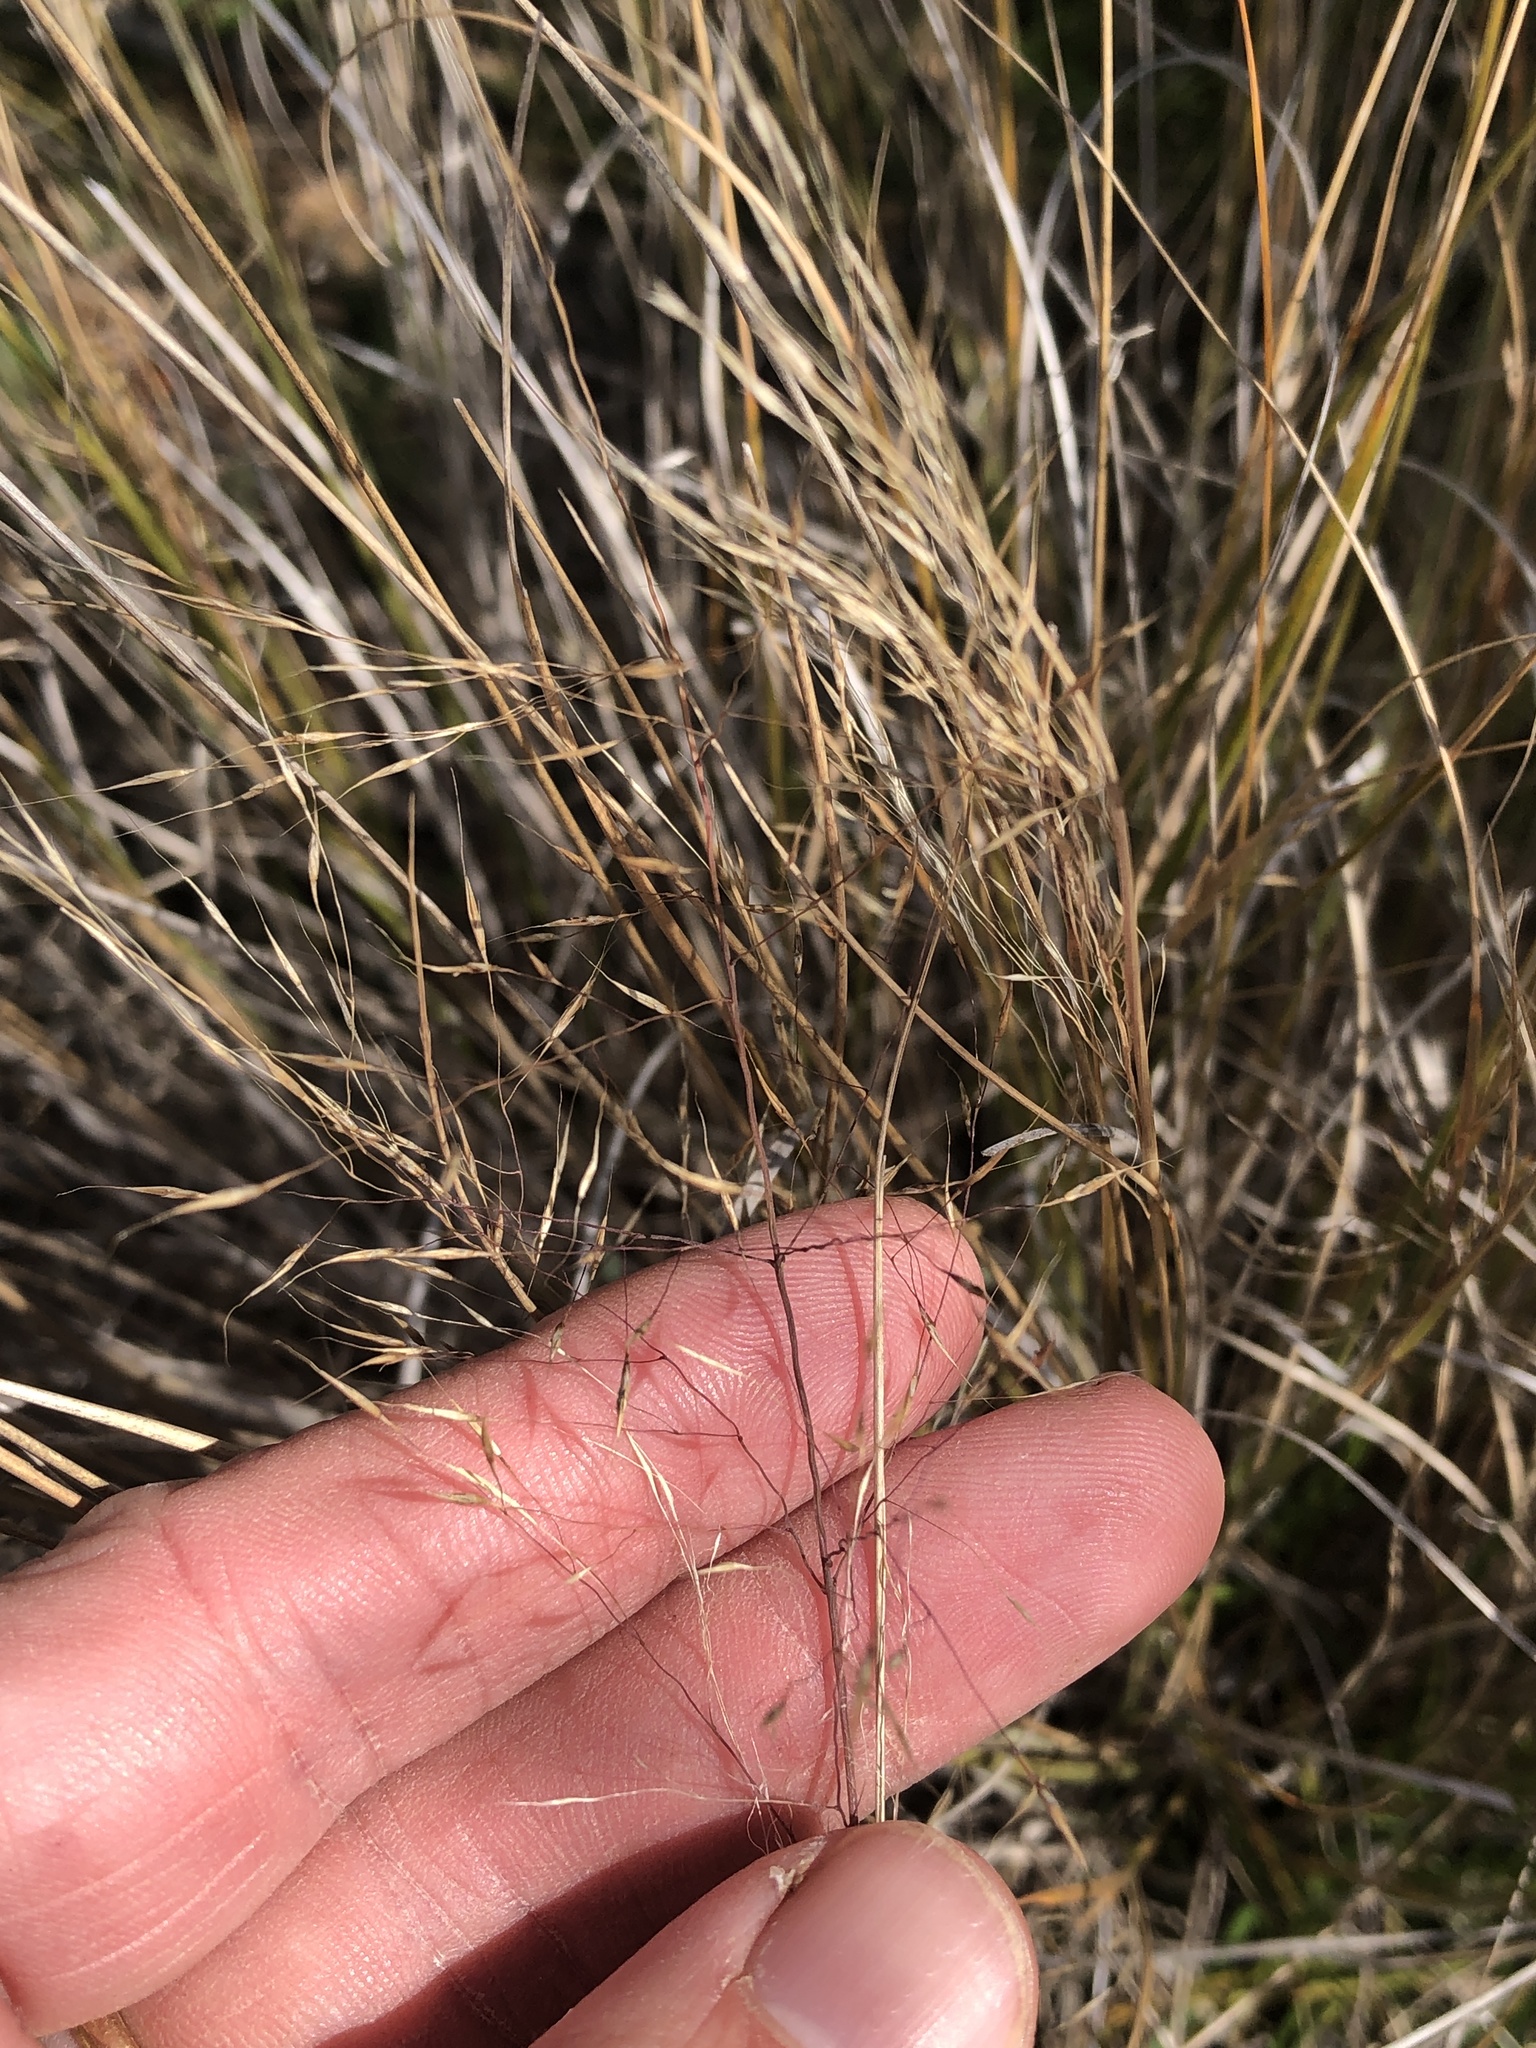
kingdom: Plantae
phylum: Tracheophyta
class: Liliopsida
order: Poales
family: Poaceae
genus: Muhlenbergia
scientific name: Muhlenbergia reverchonii
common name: Seep muhly
